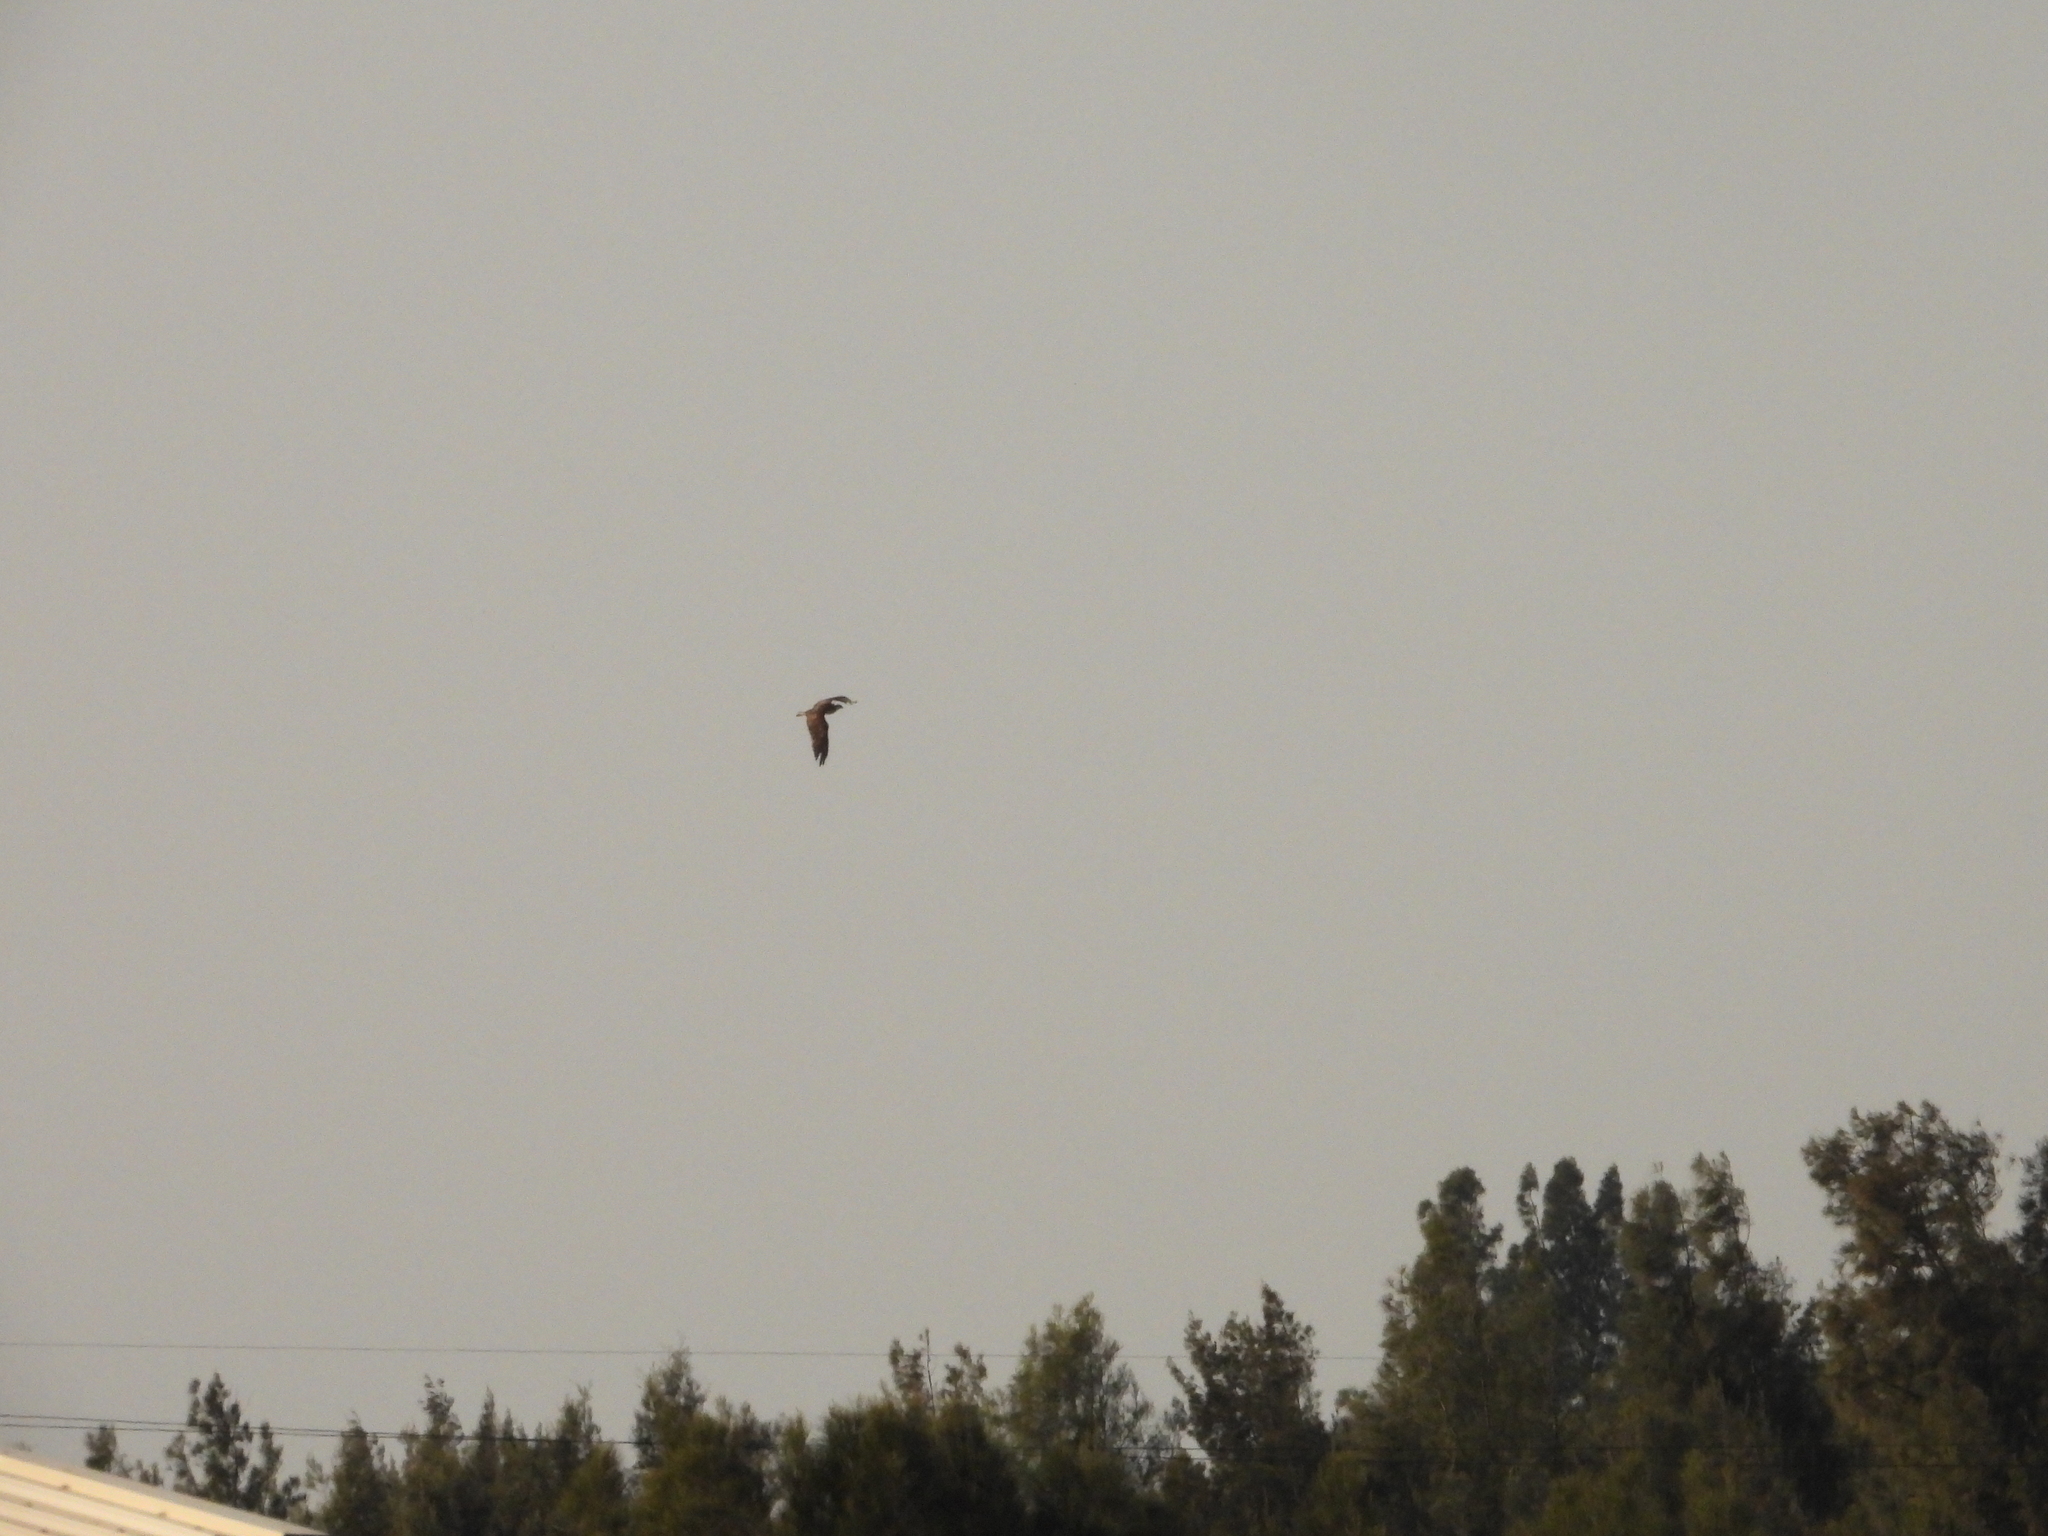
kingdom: Animalia
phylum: Chordata
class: Aves
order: Accipitriformes
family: Pandionidae
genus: Pandion
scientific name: Pandion haliaetus
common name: Osprey
